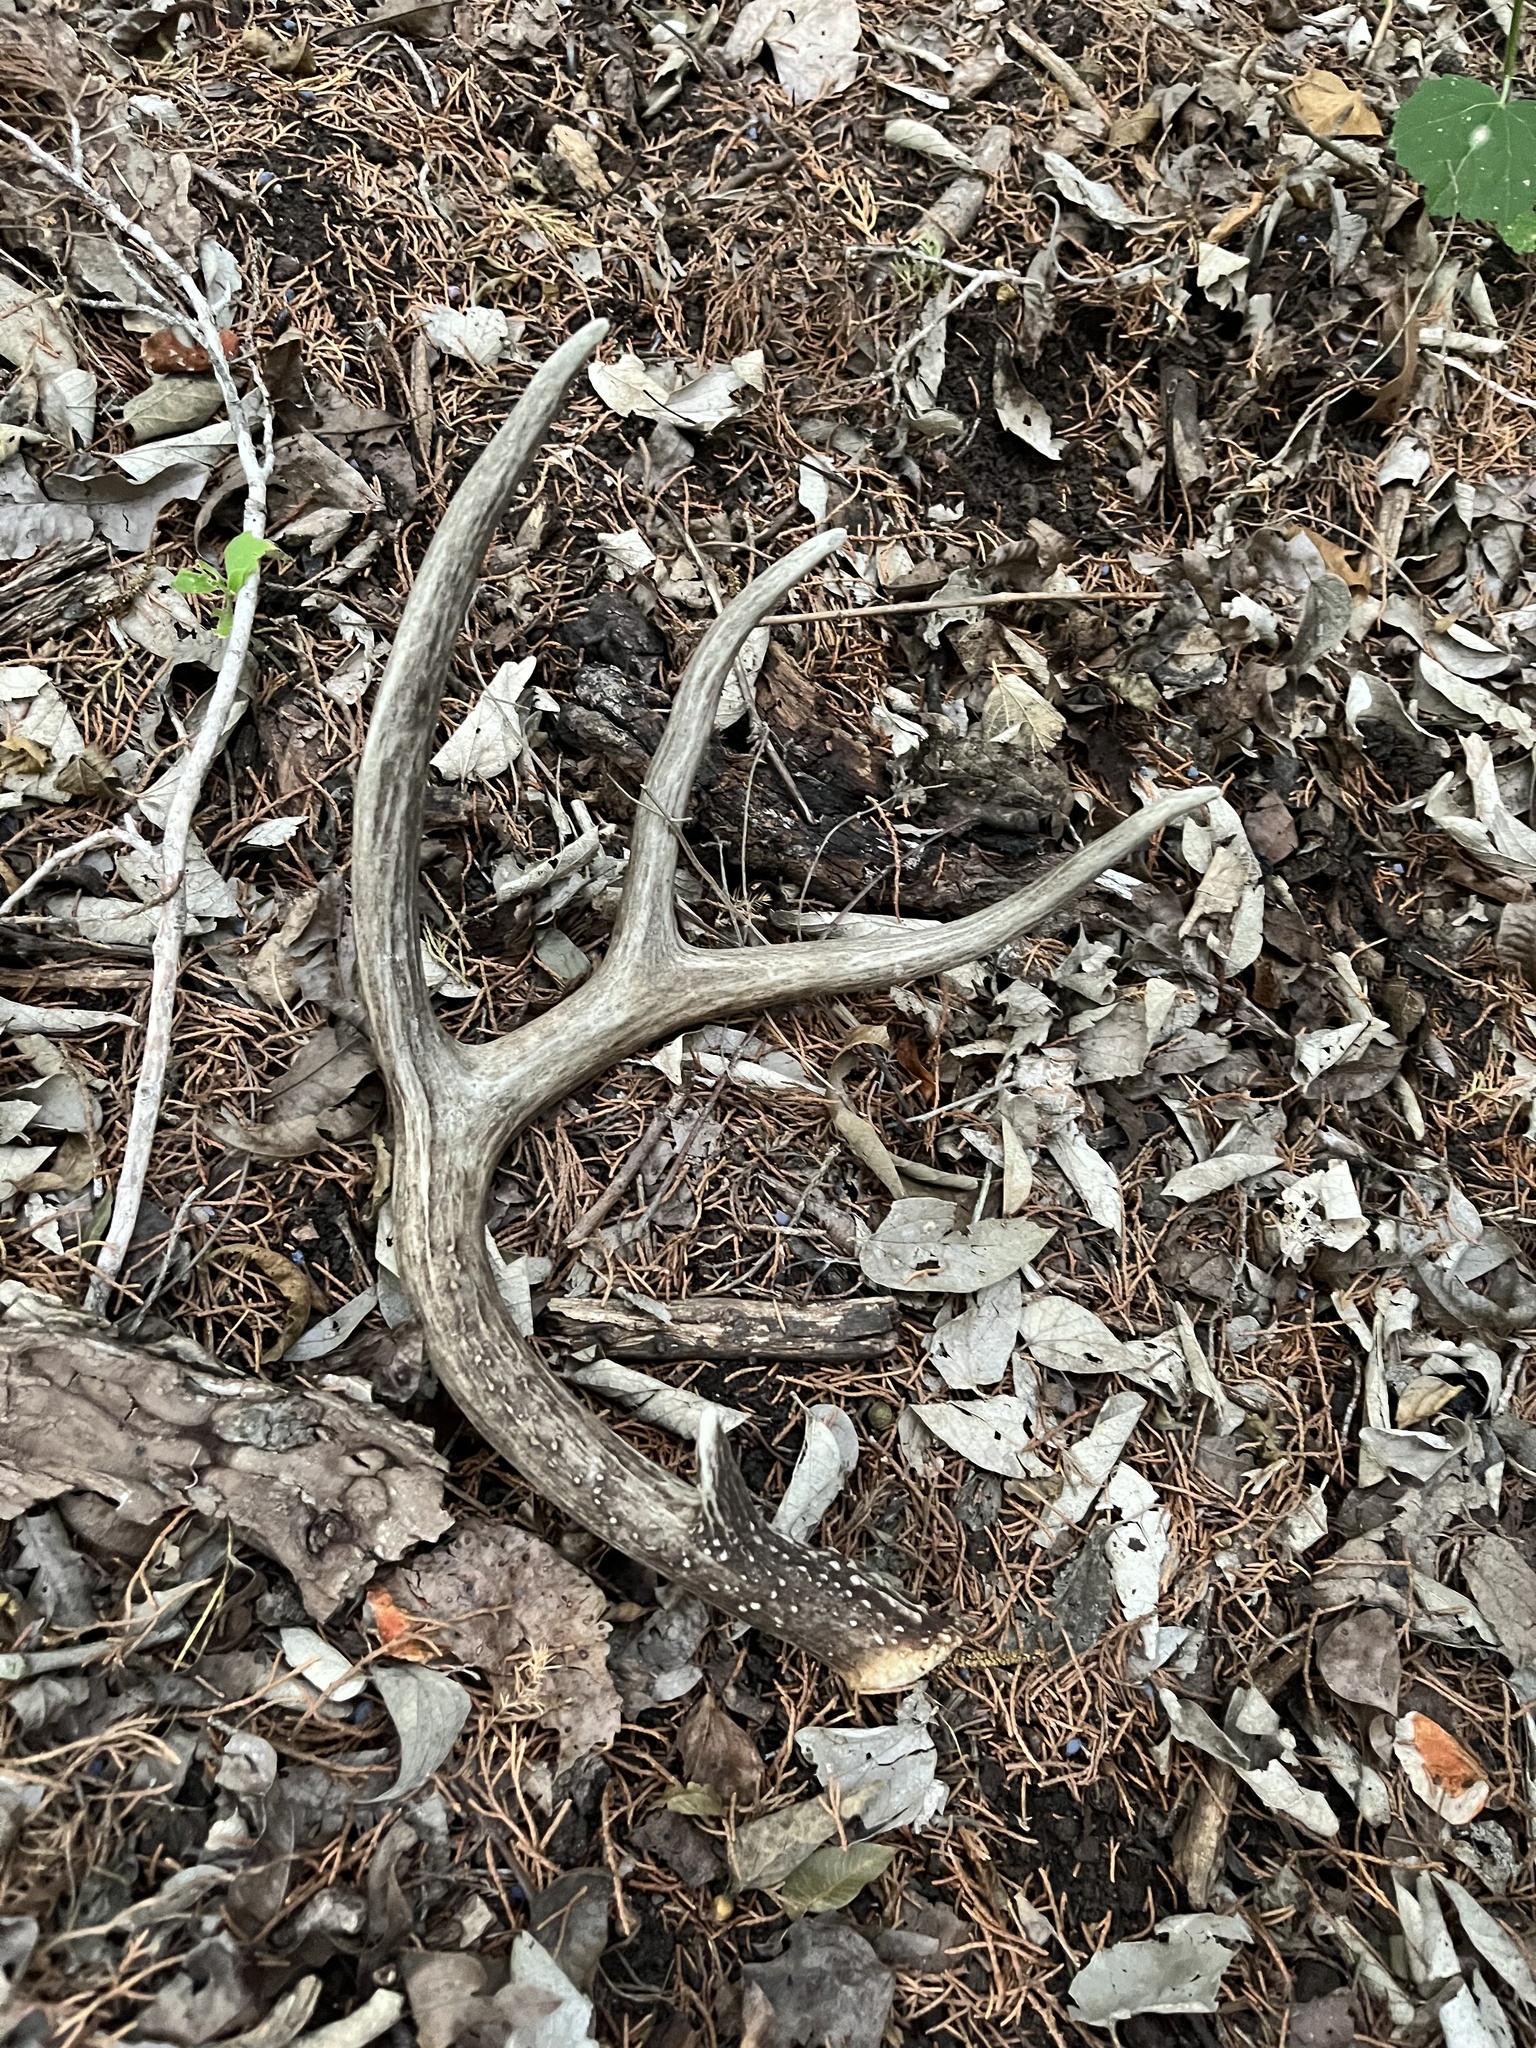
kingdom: Animalia
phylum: Chordata
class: Mammalia
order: Artiodactyla
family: Cervidae
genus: Odocoileus
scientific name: Odocoileus virginianus
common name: White-tailed deer
